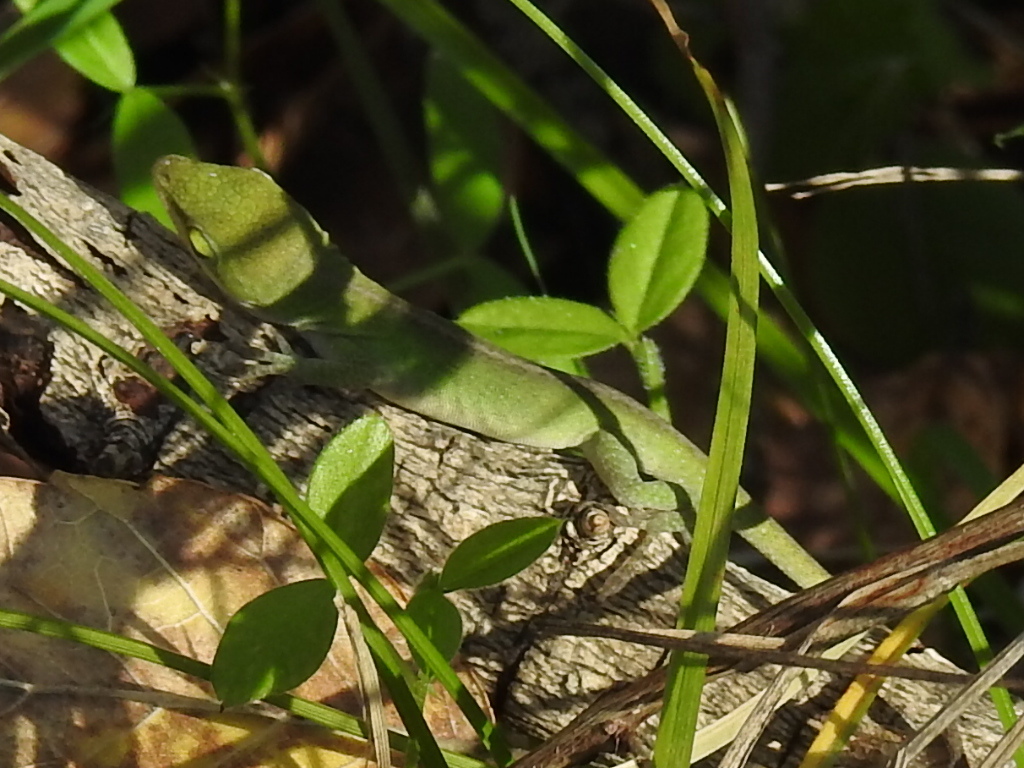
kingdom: Animalia
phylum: Chordata
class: Squamata
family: Dactyloidae
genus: Anolis
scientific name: Anolis carolinensis
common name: Green anole
